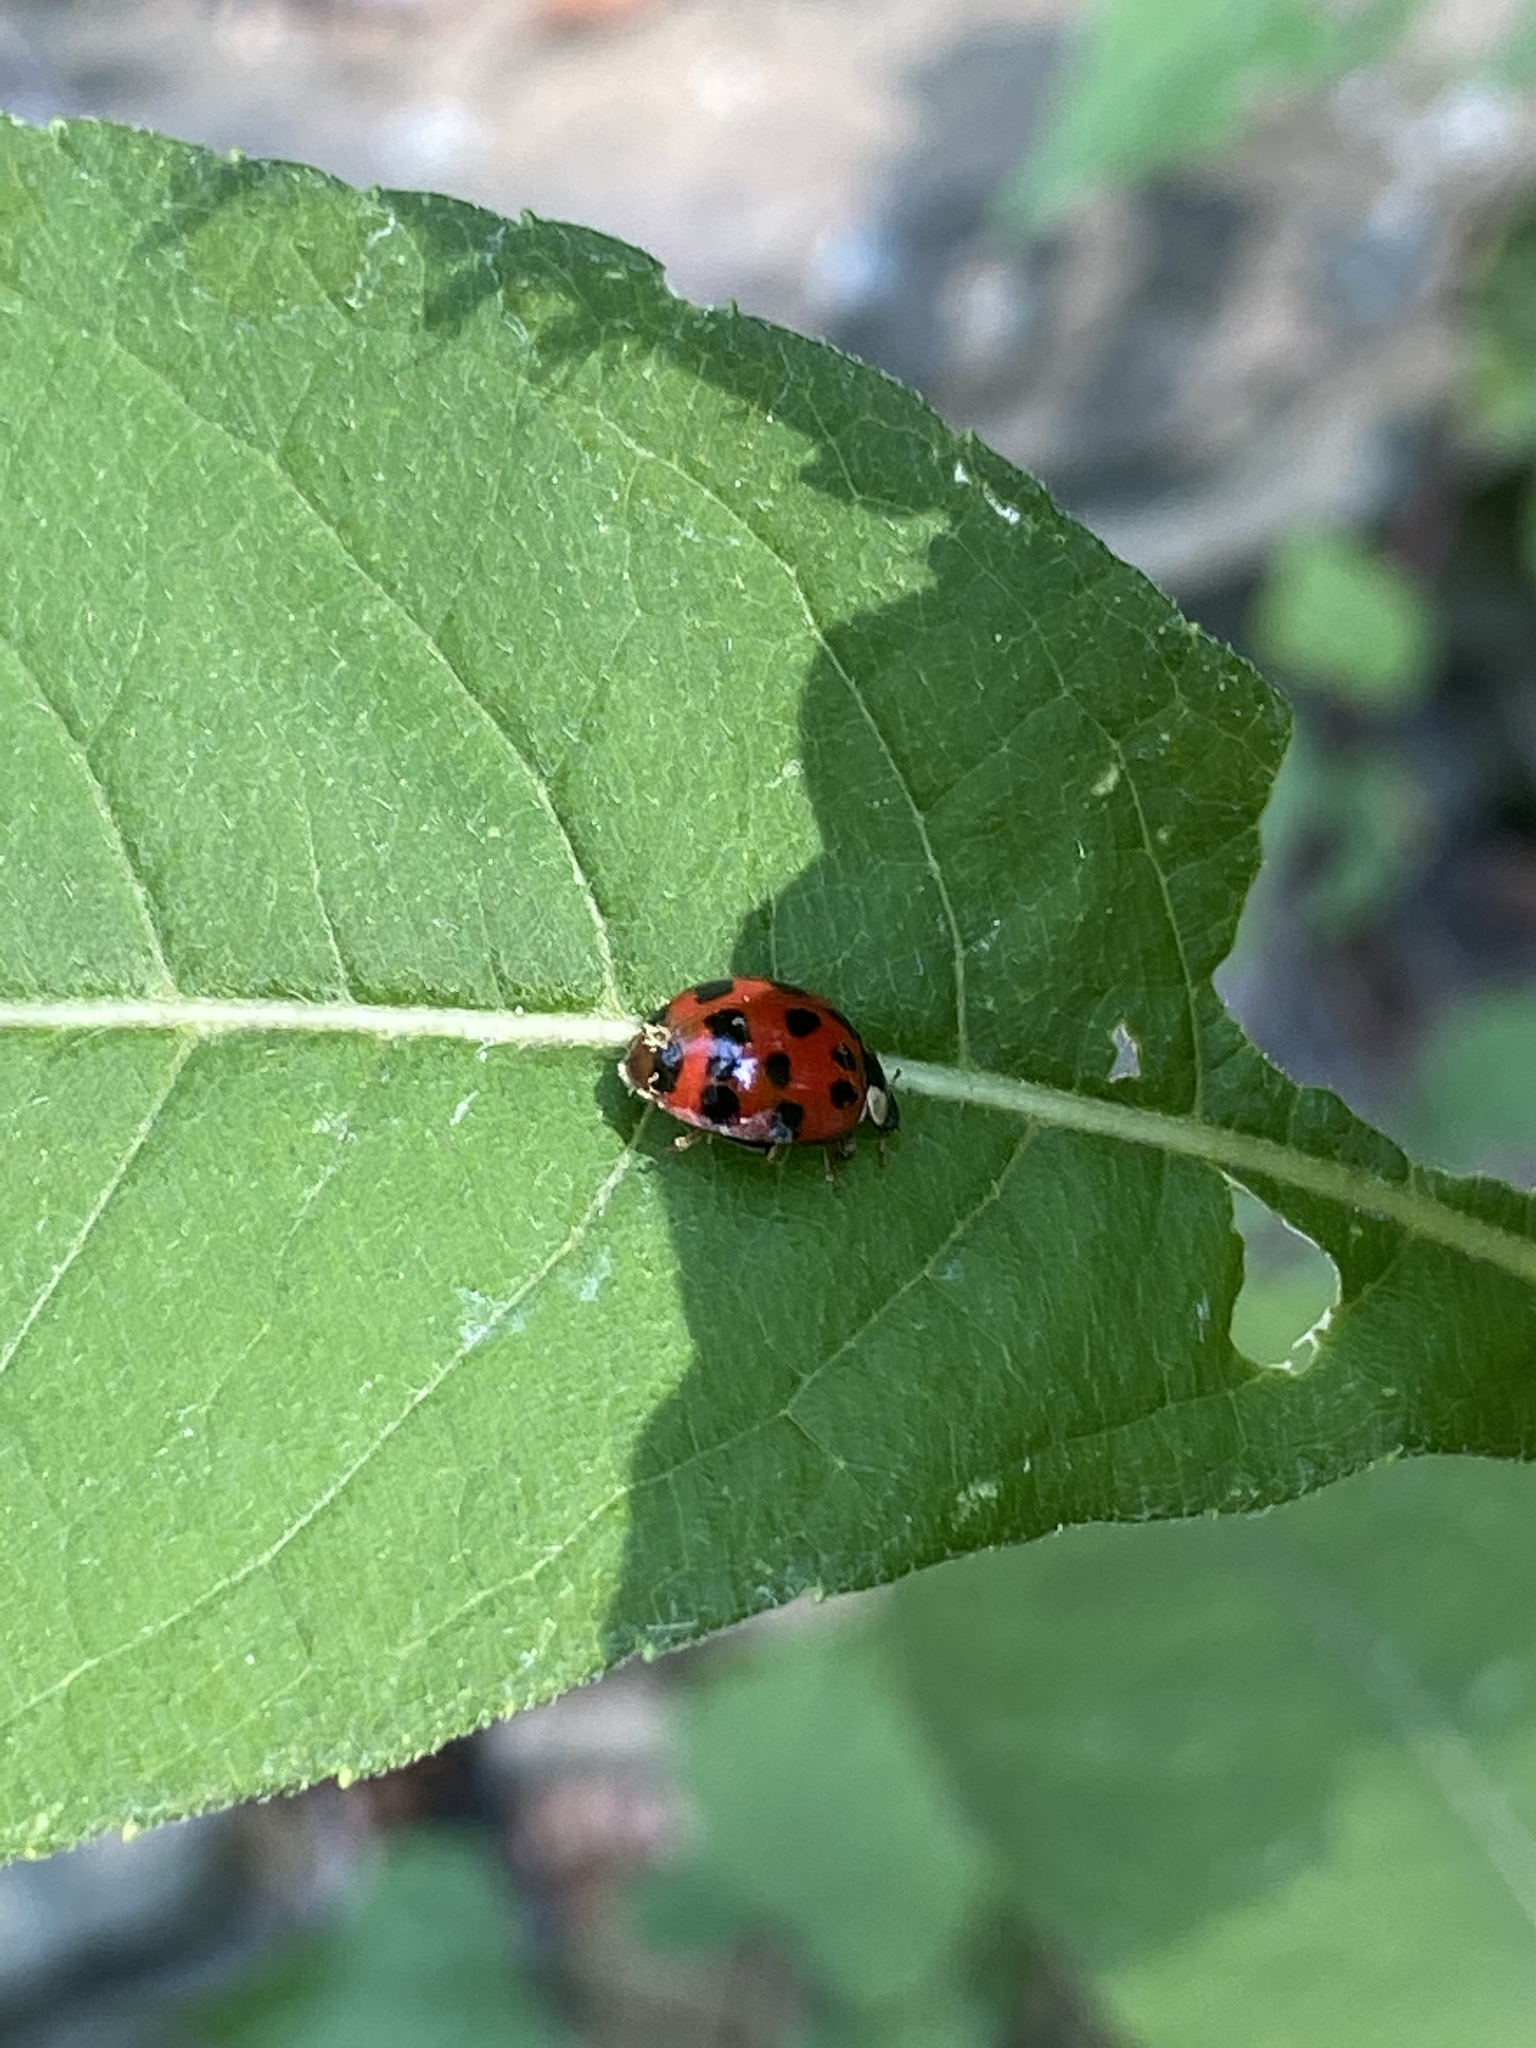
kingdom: Animalia
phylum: Arthropoda
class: Insecta
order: Coleoptera
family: Coccinellidae
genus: Harmonia
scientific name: Harmonia axyridis
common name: Harlequin ladybird
